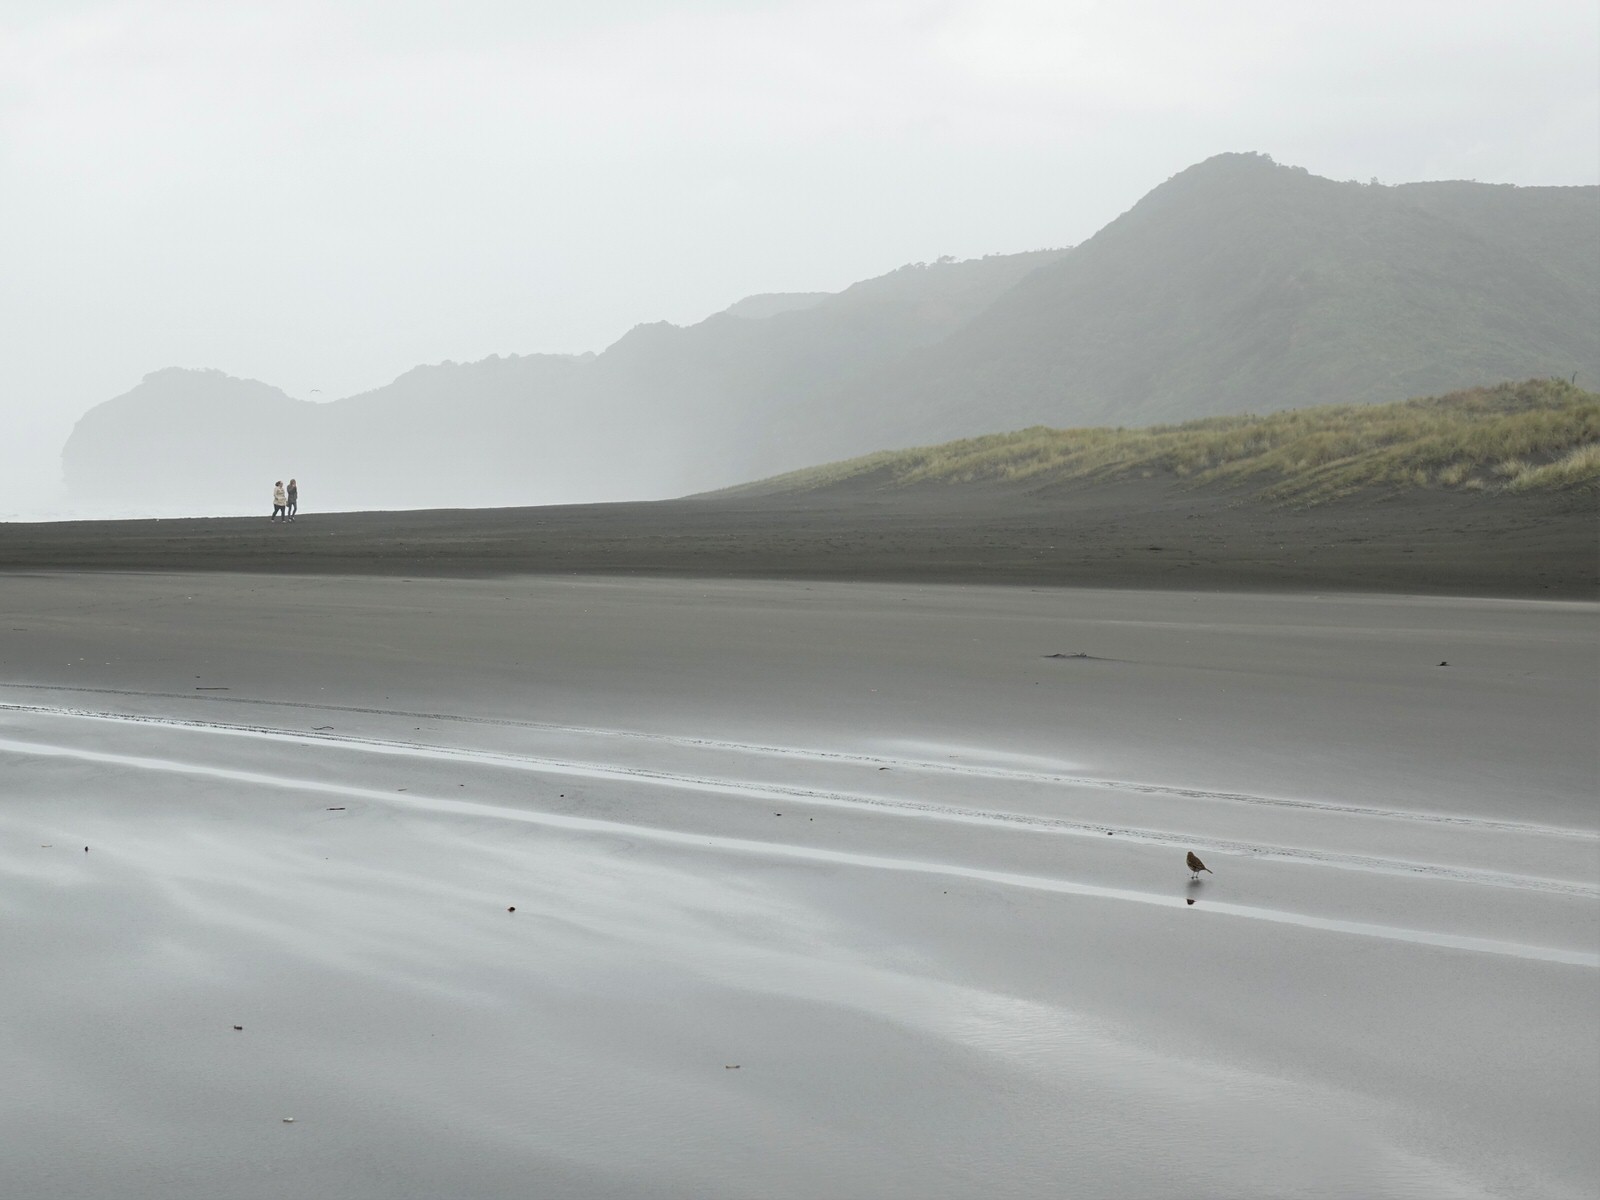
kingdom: Animalia
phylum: Chordata
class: Aves
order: Passeriformes
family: Motacillidae
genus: Anthus
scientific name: Anthus novaeseelandiae
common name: New zealand pipit
